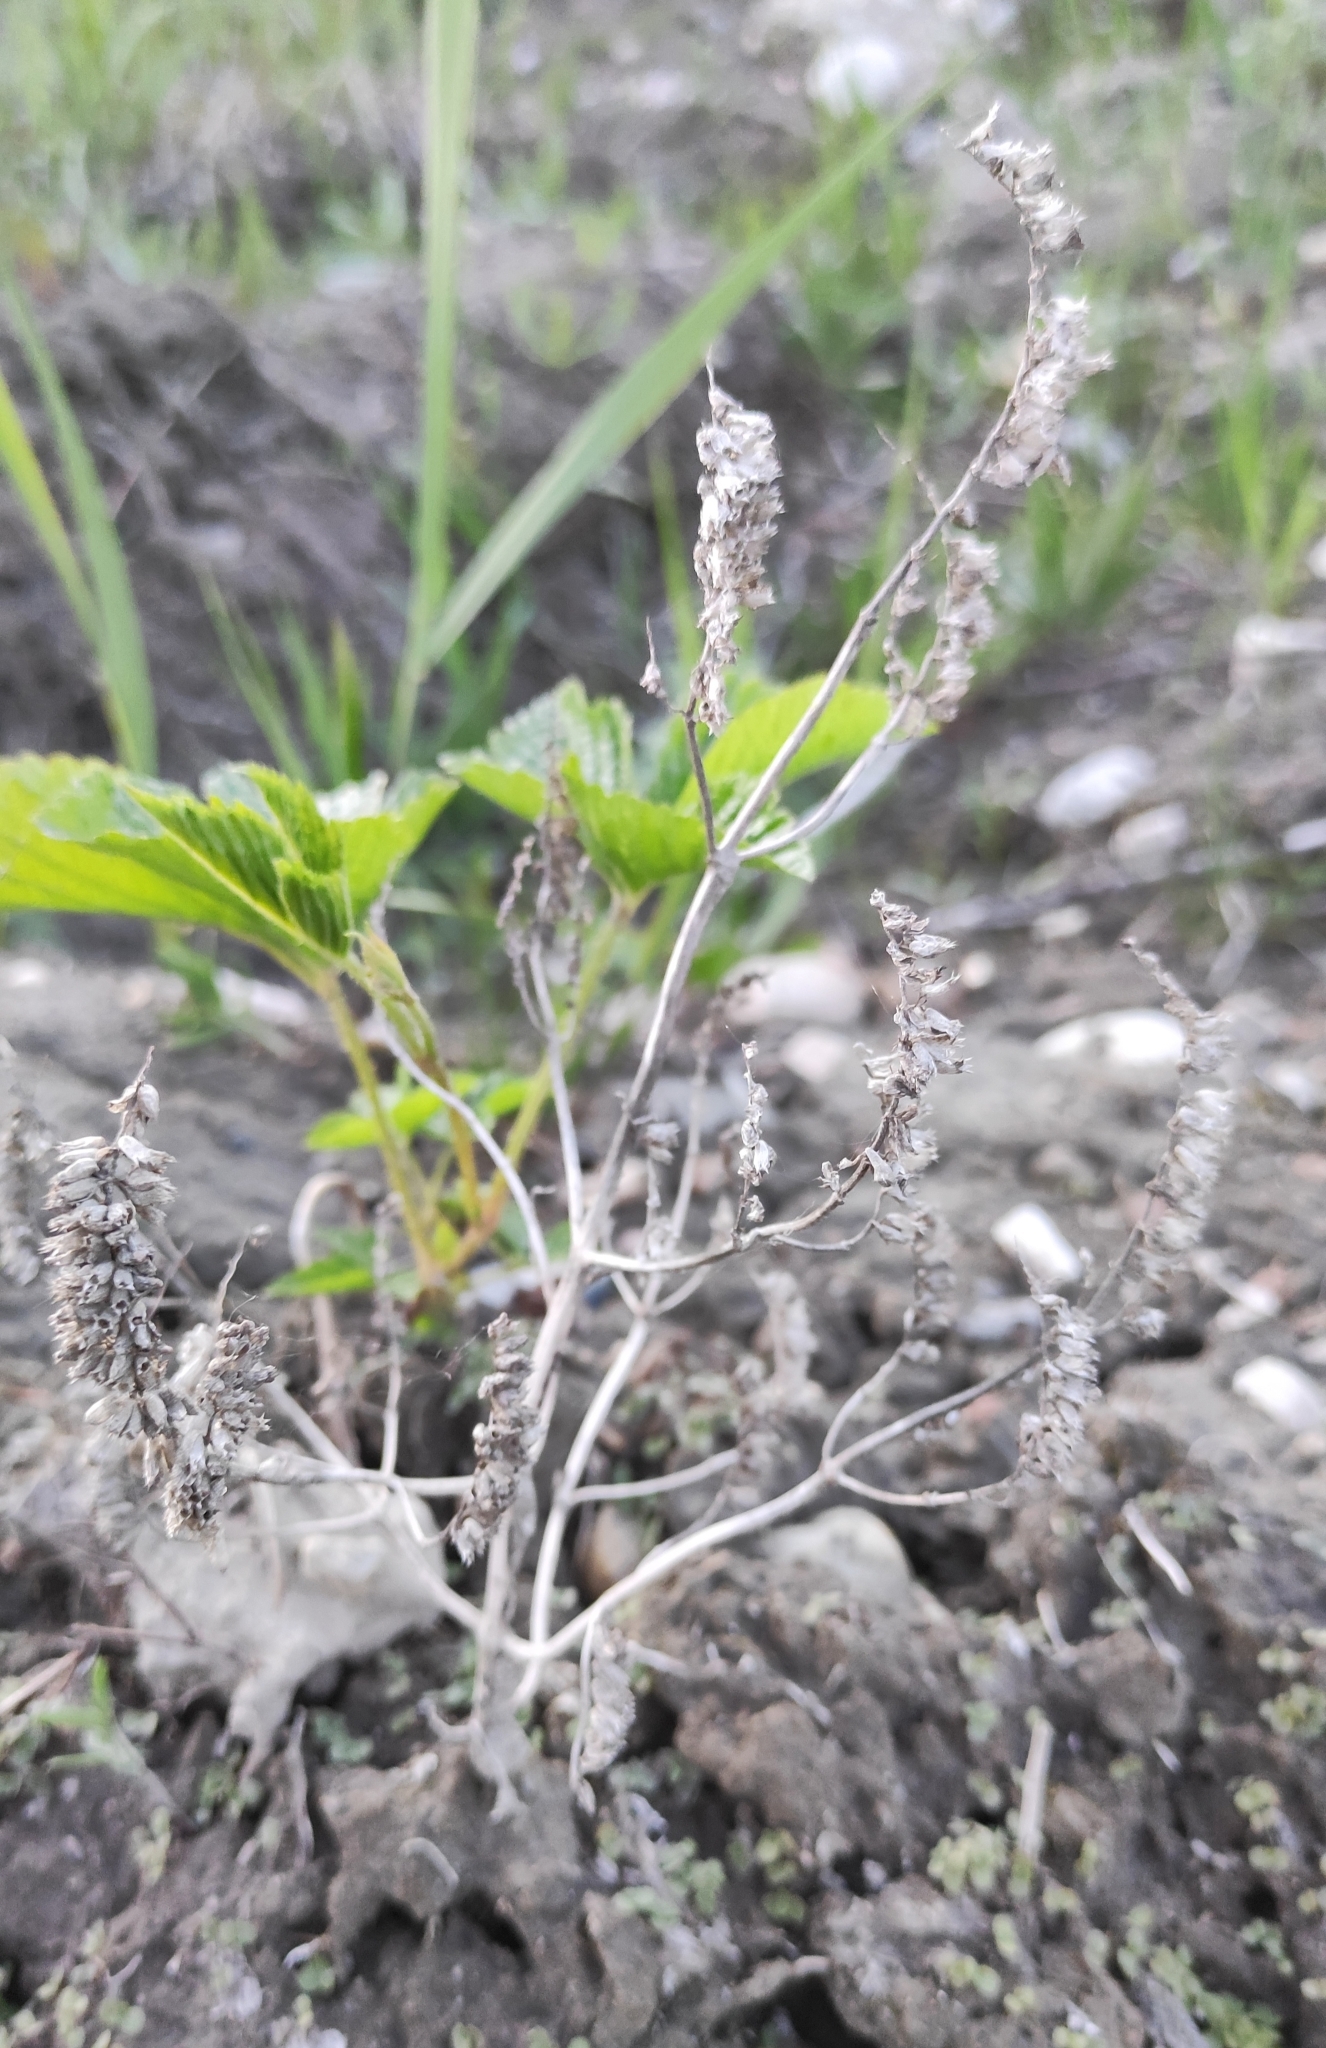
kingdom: Plantae
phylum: Tracheophyta
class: Magnoliopsida
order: Lamiales
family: Lamiaceae
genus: Elsholtzia
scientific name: Elsholtzia ciliata
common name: Ciliate elsholtzia
